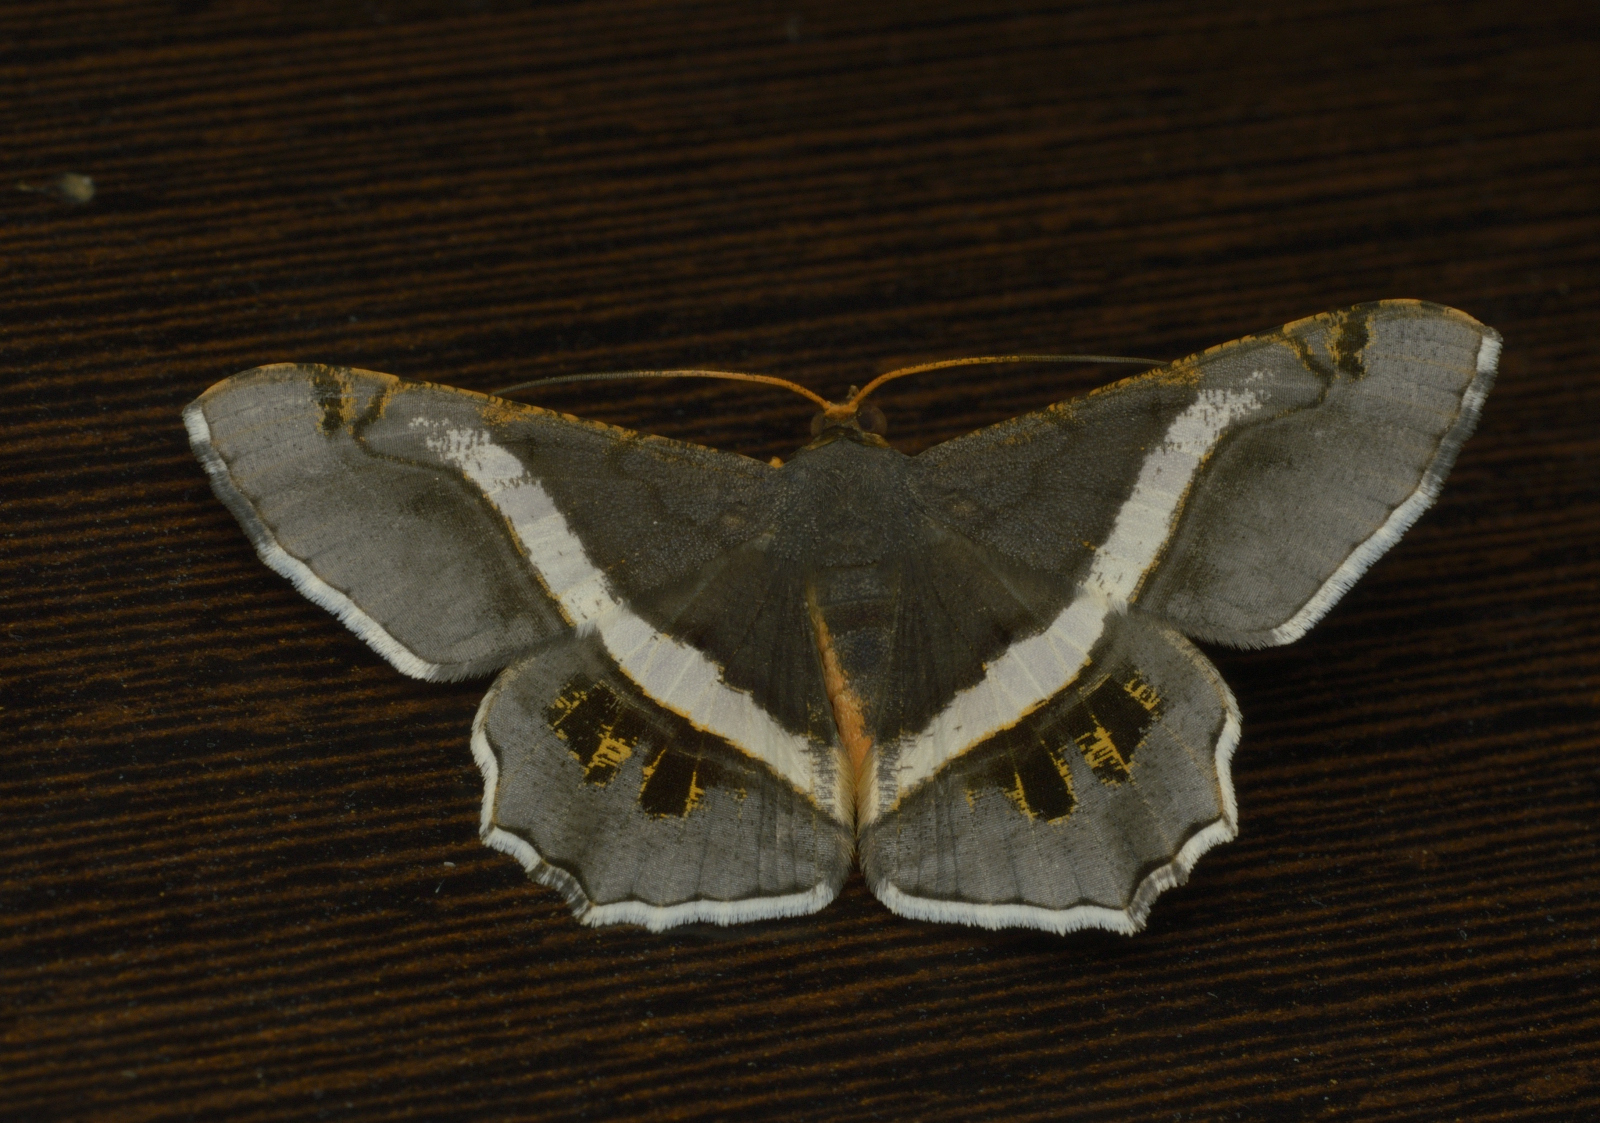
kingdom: Animalia
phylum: Arthropoda
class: Insecta
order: Lepidoptera
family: Geometridae
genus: Chiasmia
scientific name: Chiasmia eleonora
